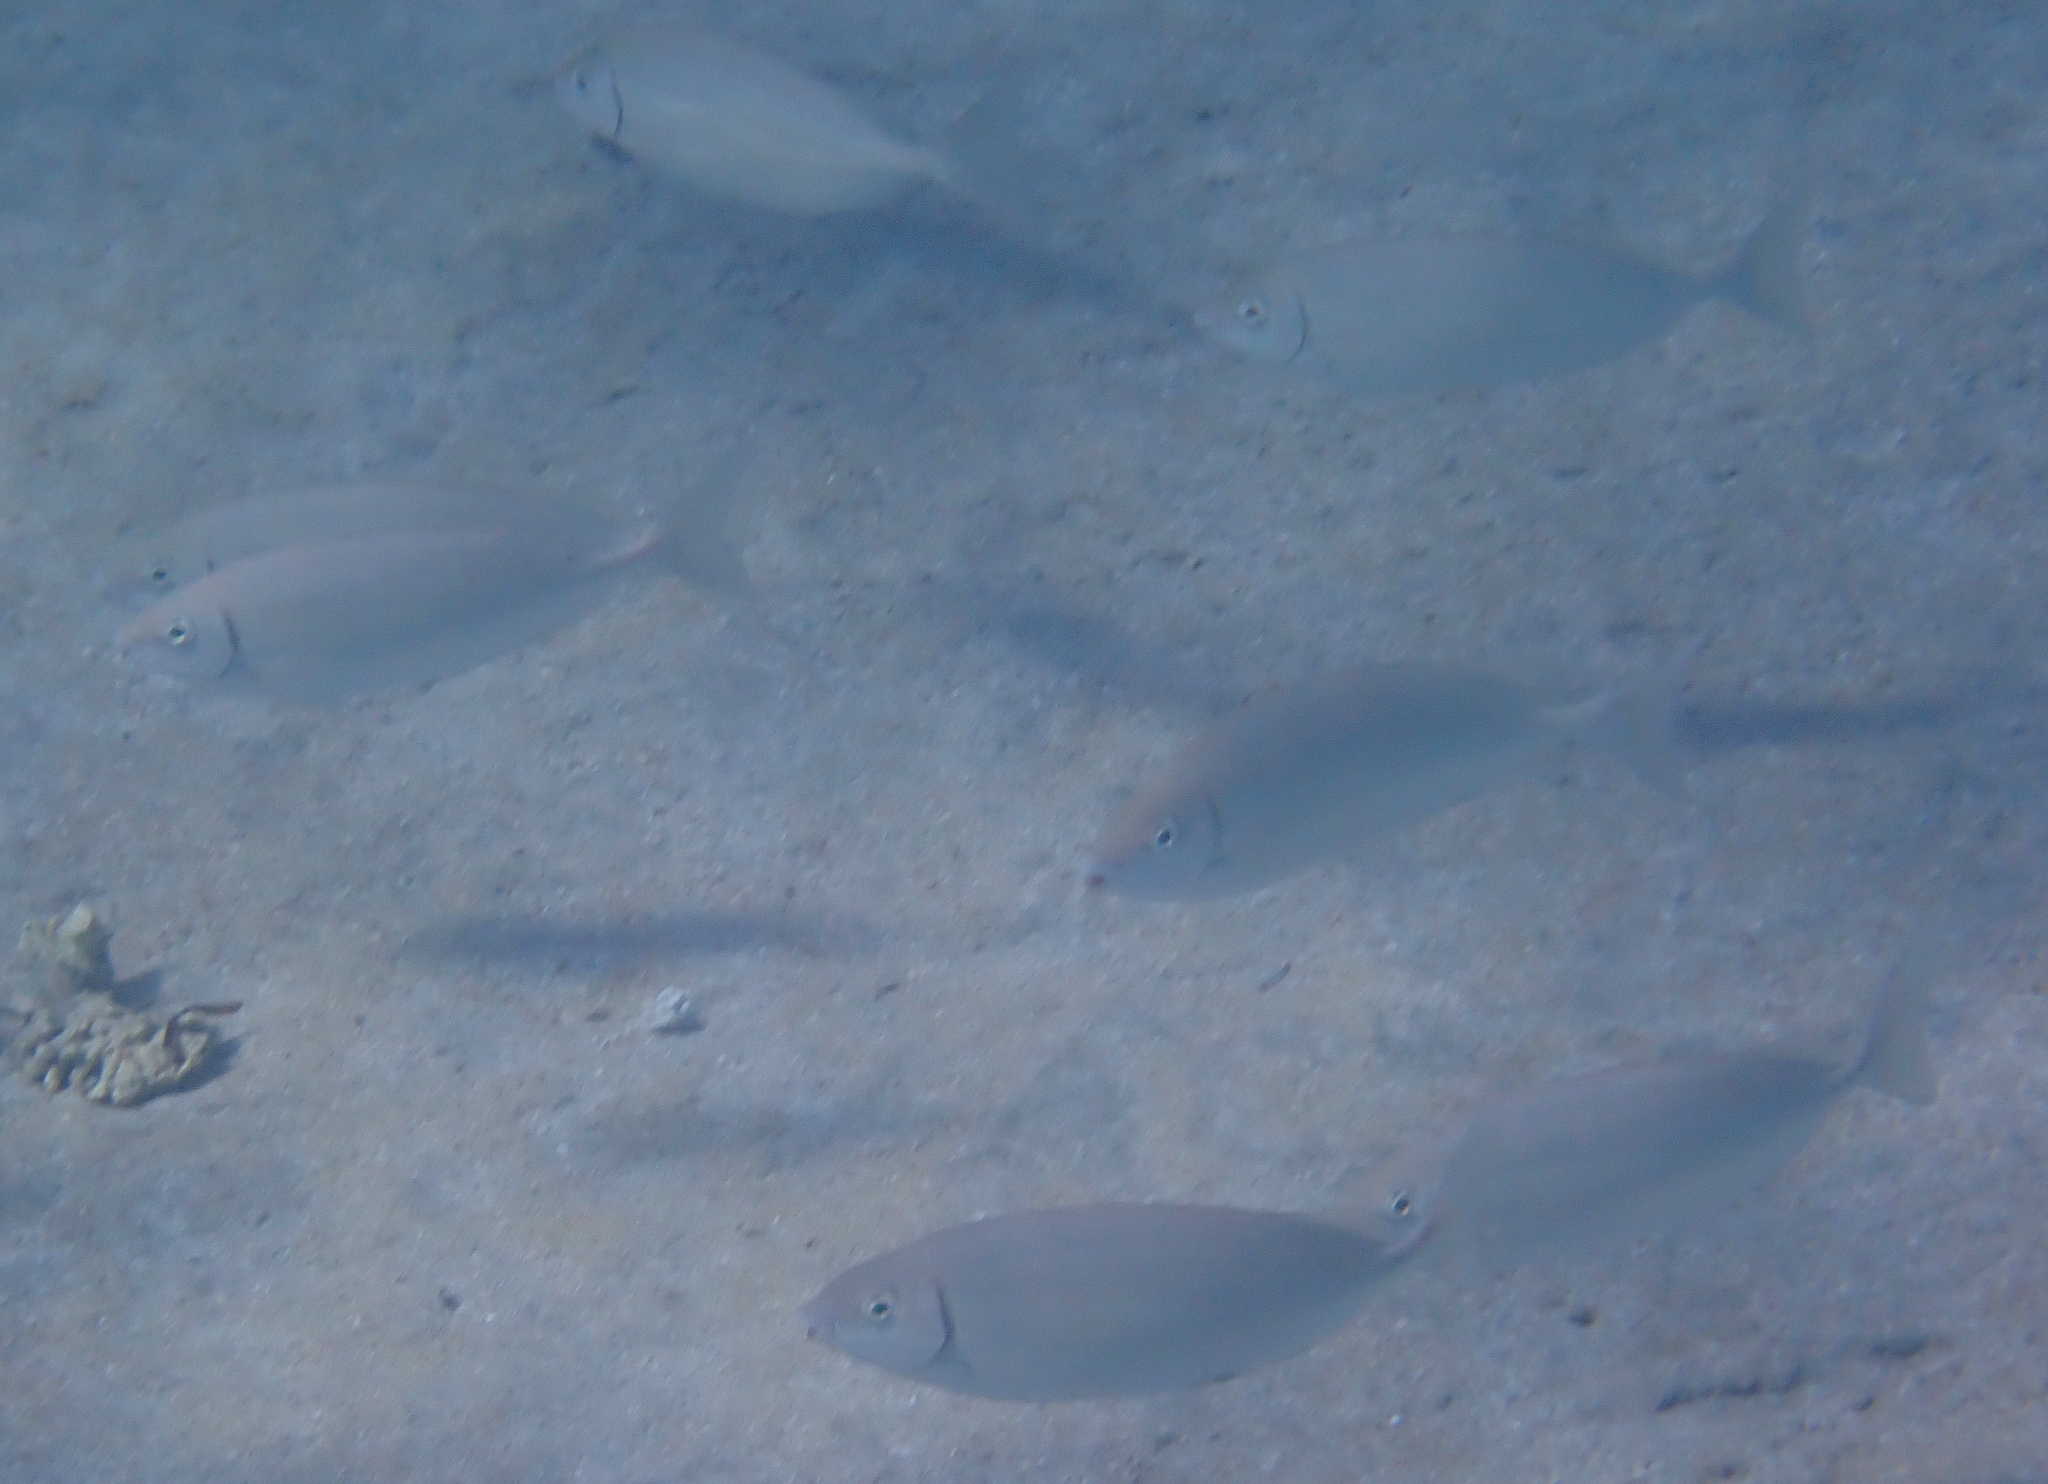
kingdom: Animalia
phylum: Chordata
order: Perciformes
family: Siganidae
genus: Siganus
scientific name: Siganus rivulatus
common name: Marbled spinefoot
